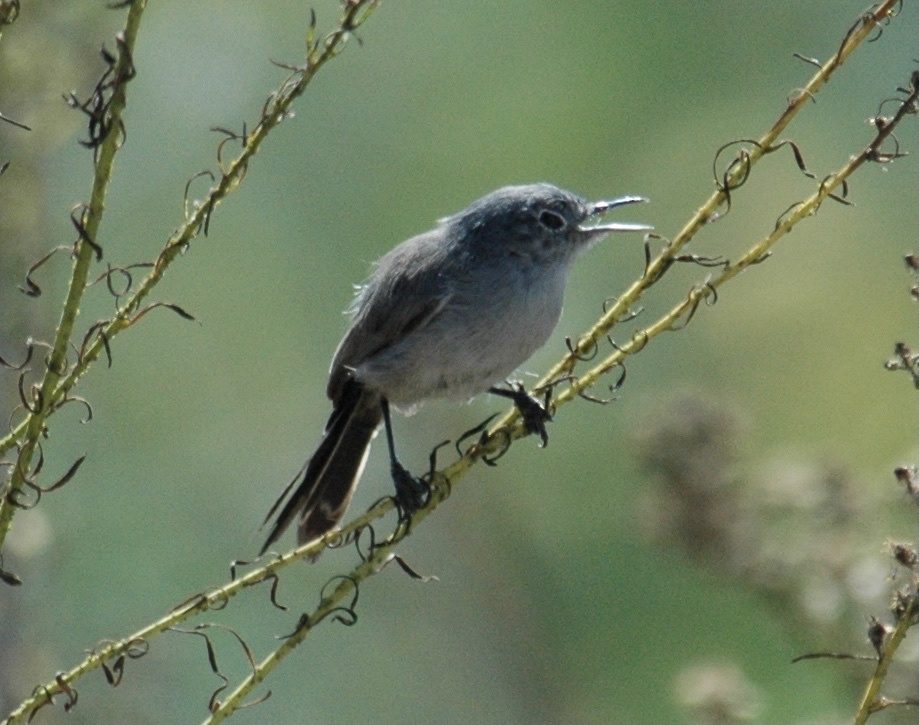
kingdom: Animalia
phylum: Chordata
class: Aves
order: Passeriformes
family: Polioptilidae
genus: Polioptila
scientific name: Polioptila californica
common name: California gnatcatcher
